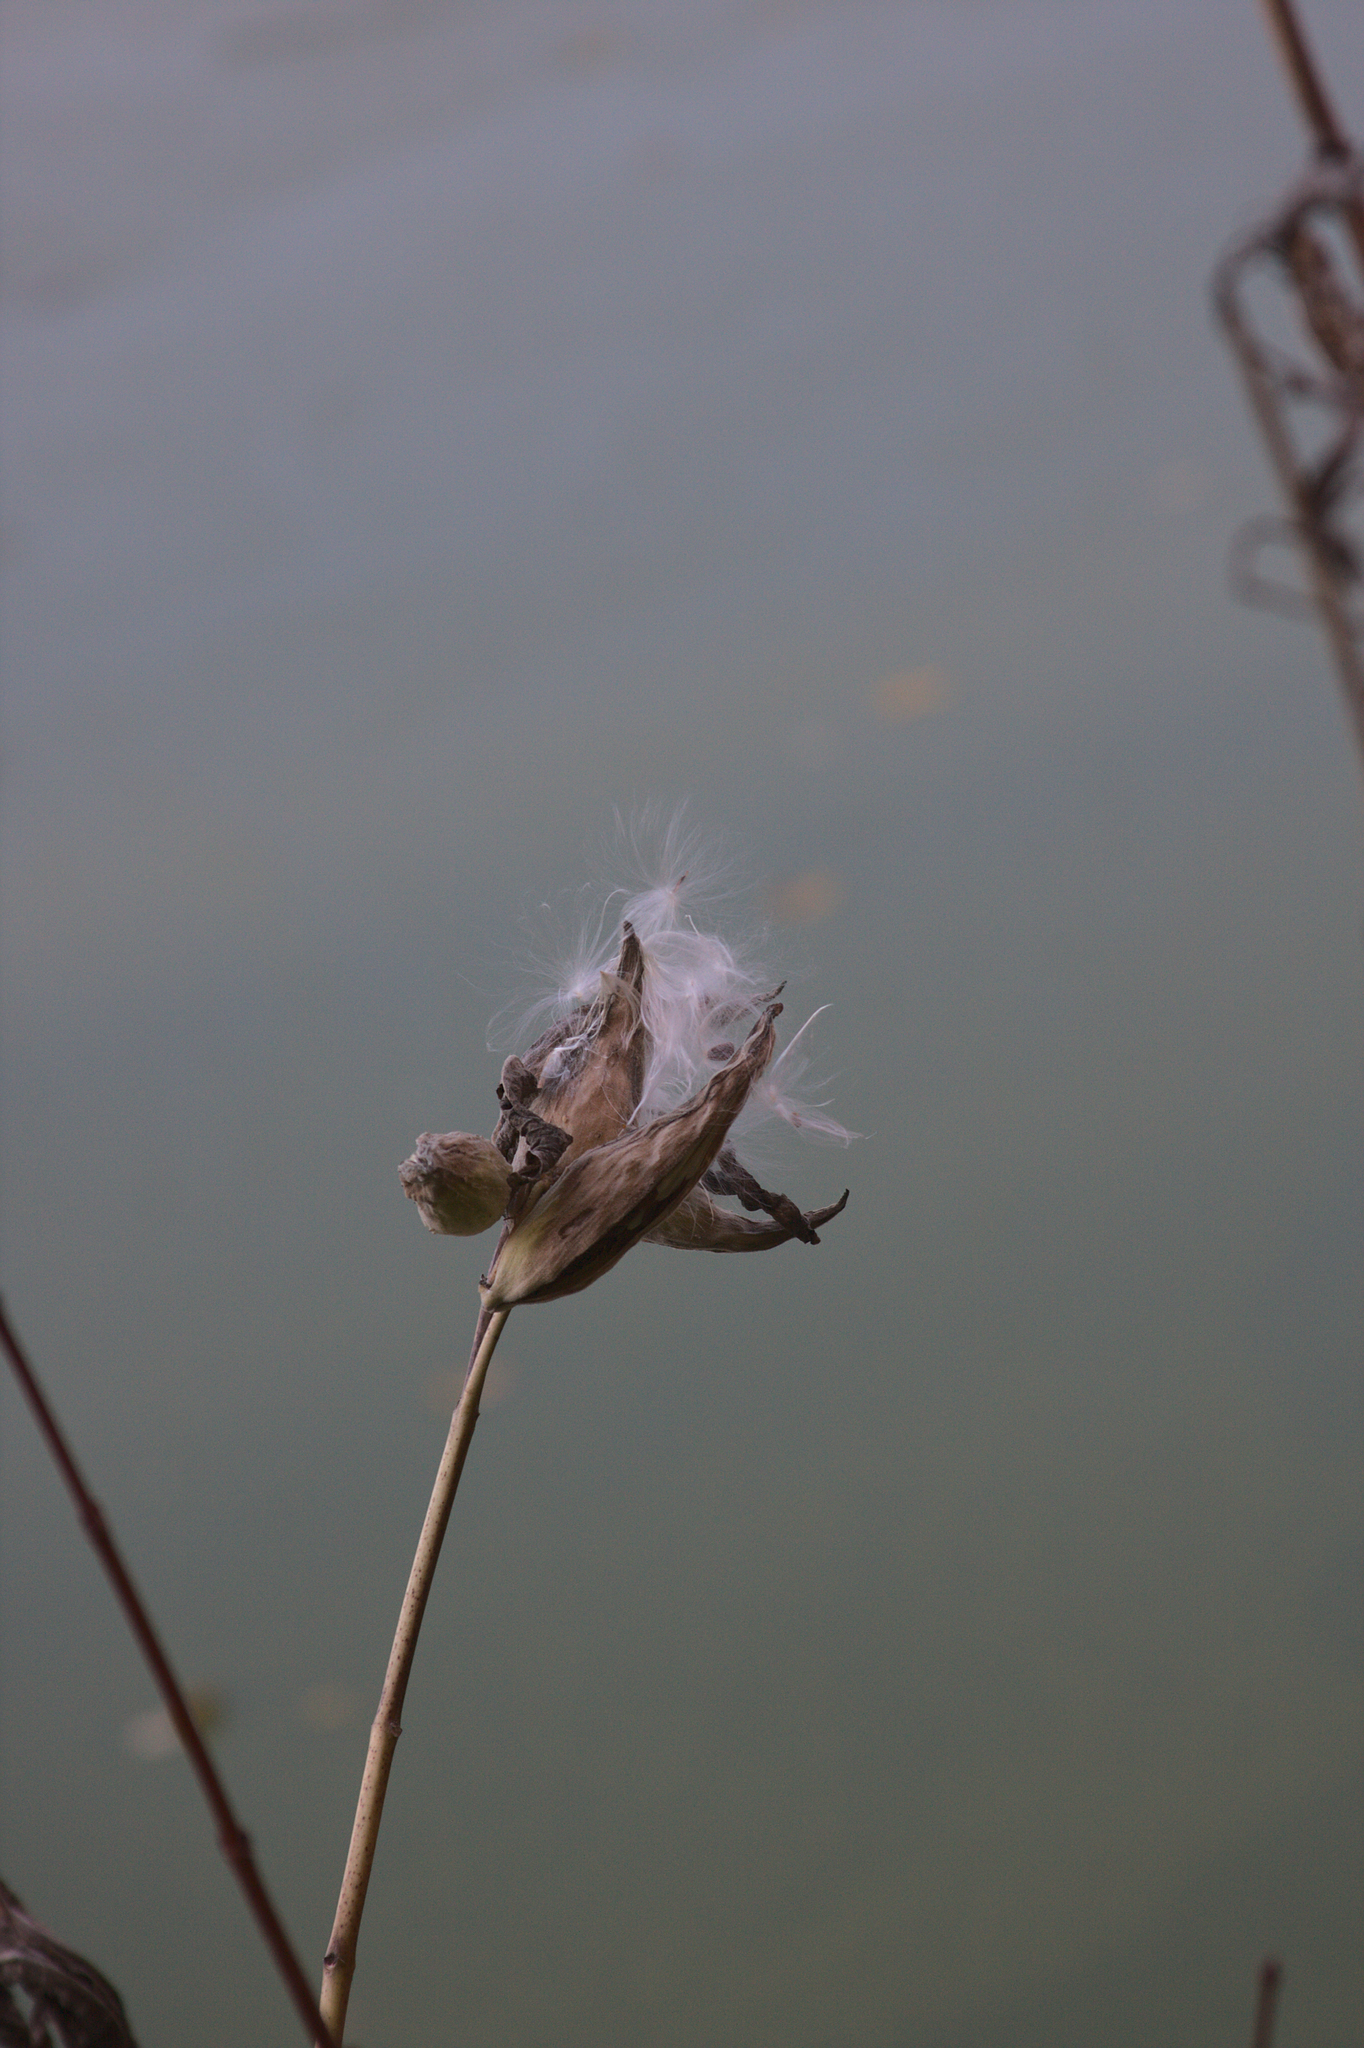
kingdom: Plantae
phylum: Tracheophyta
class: Magnoliopsida
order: Gentianales
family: Apocynaceae
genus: Asclepias
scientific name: Asclepias syriaca
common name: Common milkweed
